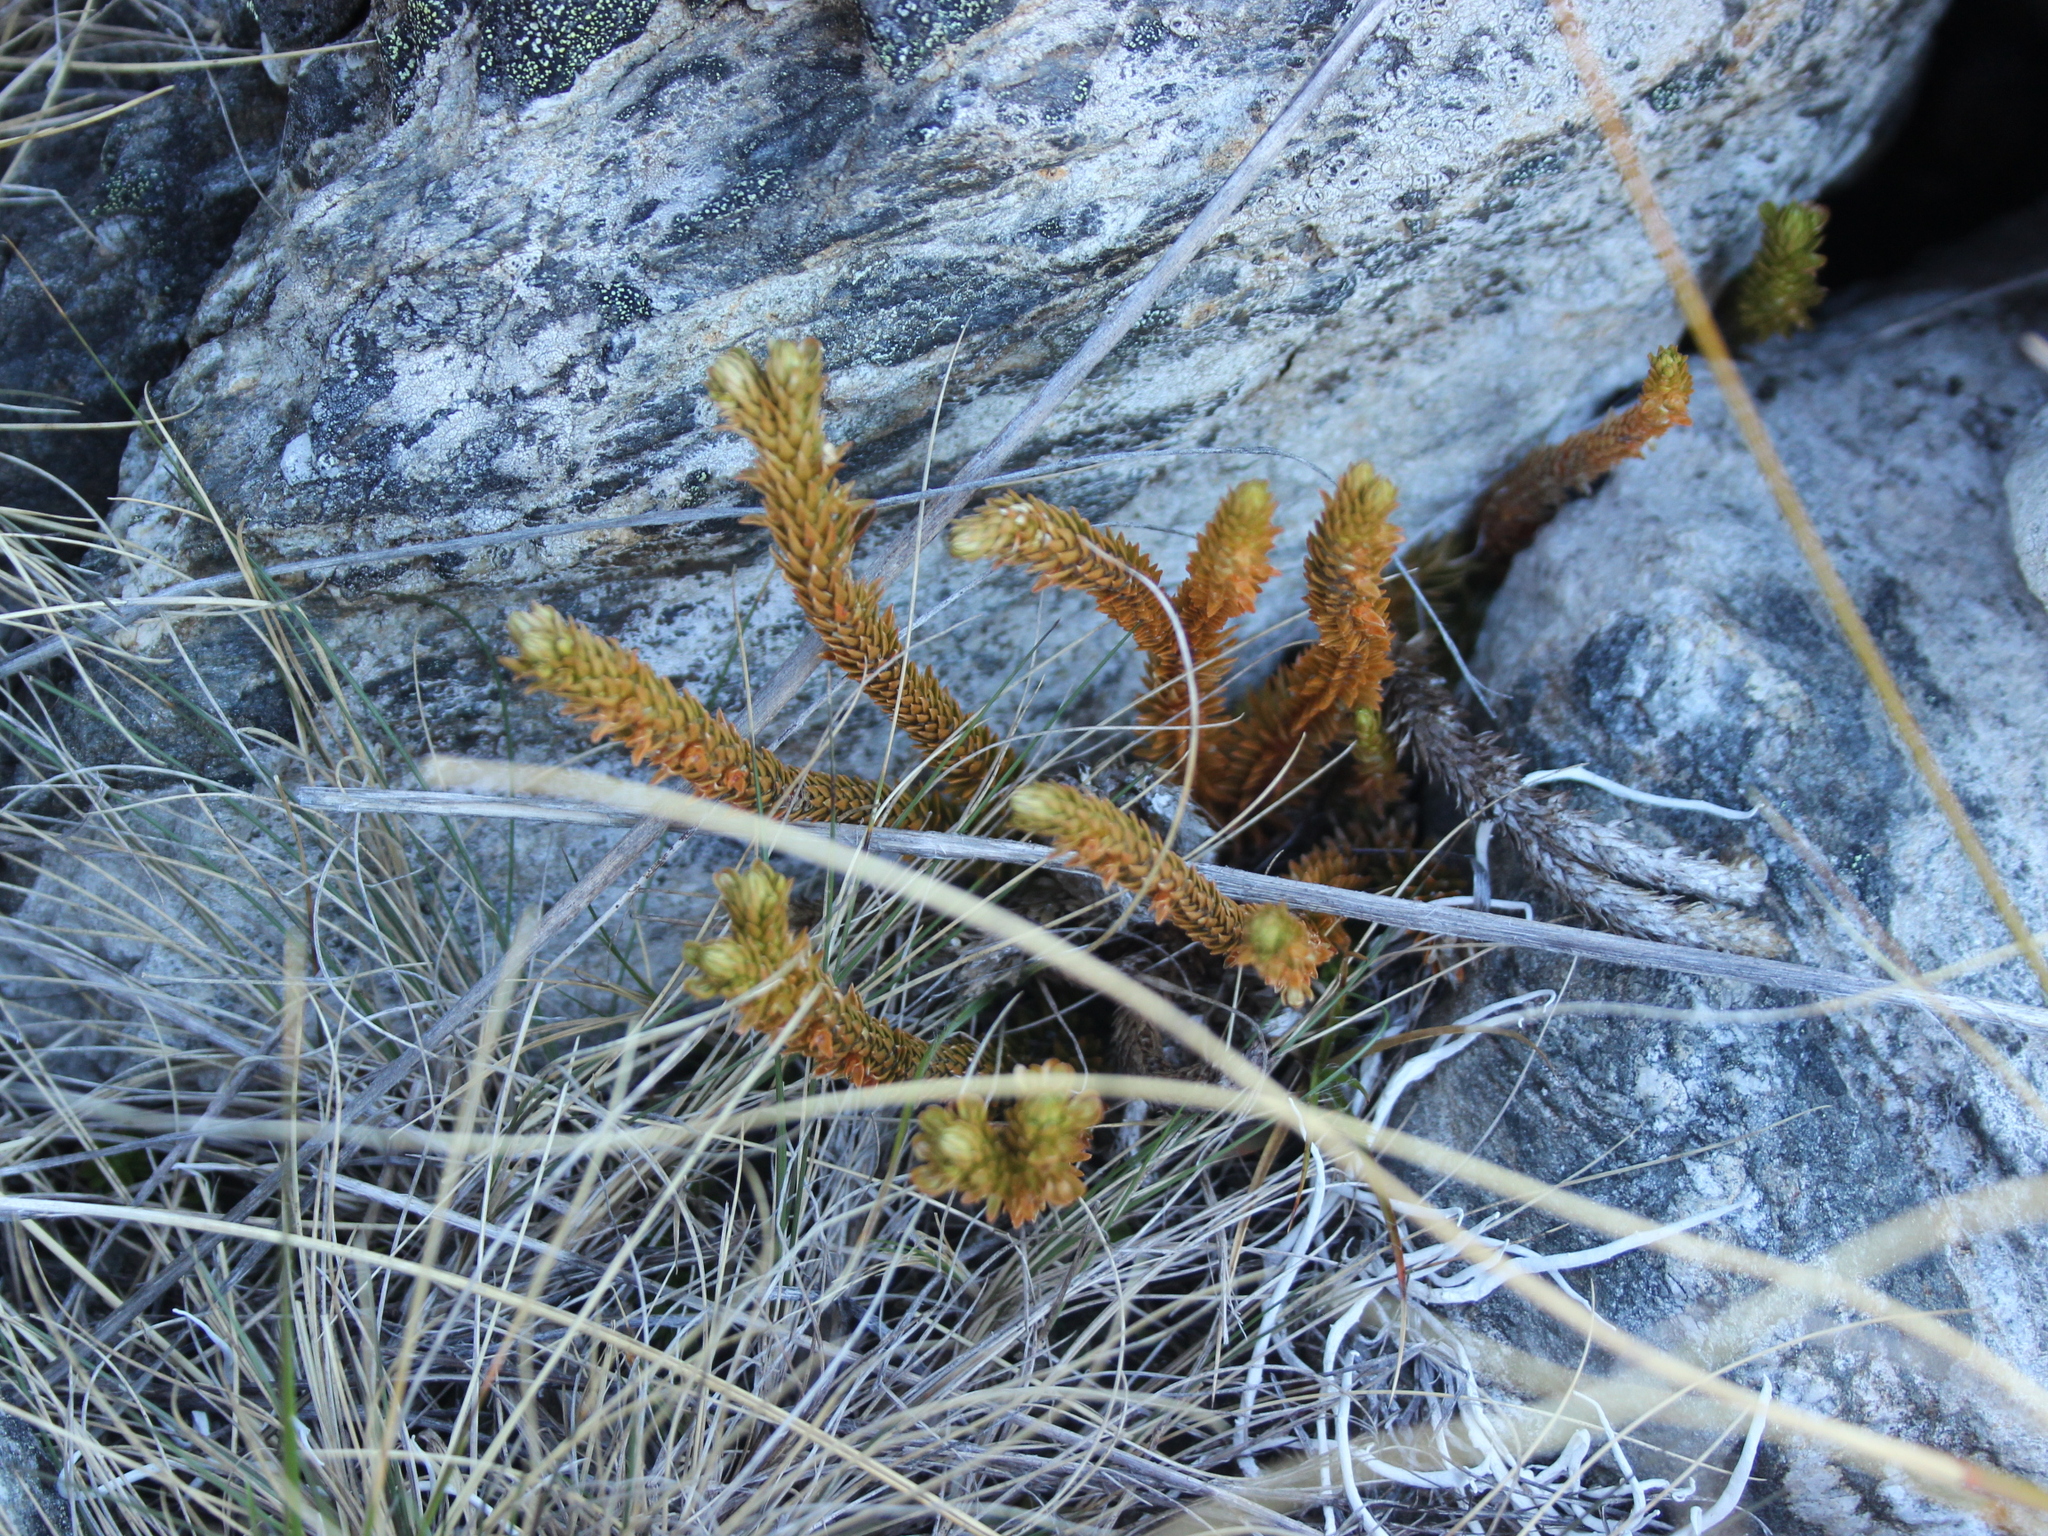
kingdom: Plantae
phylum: Tracheophyta
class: Lycopodiopsida
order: Lycopodiales
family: Lycopodiaceae
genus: Huperzia
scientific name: Huperzia australiana
